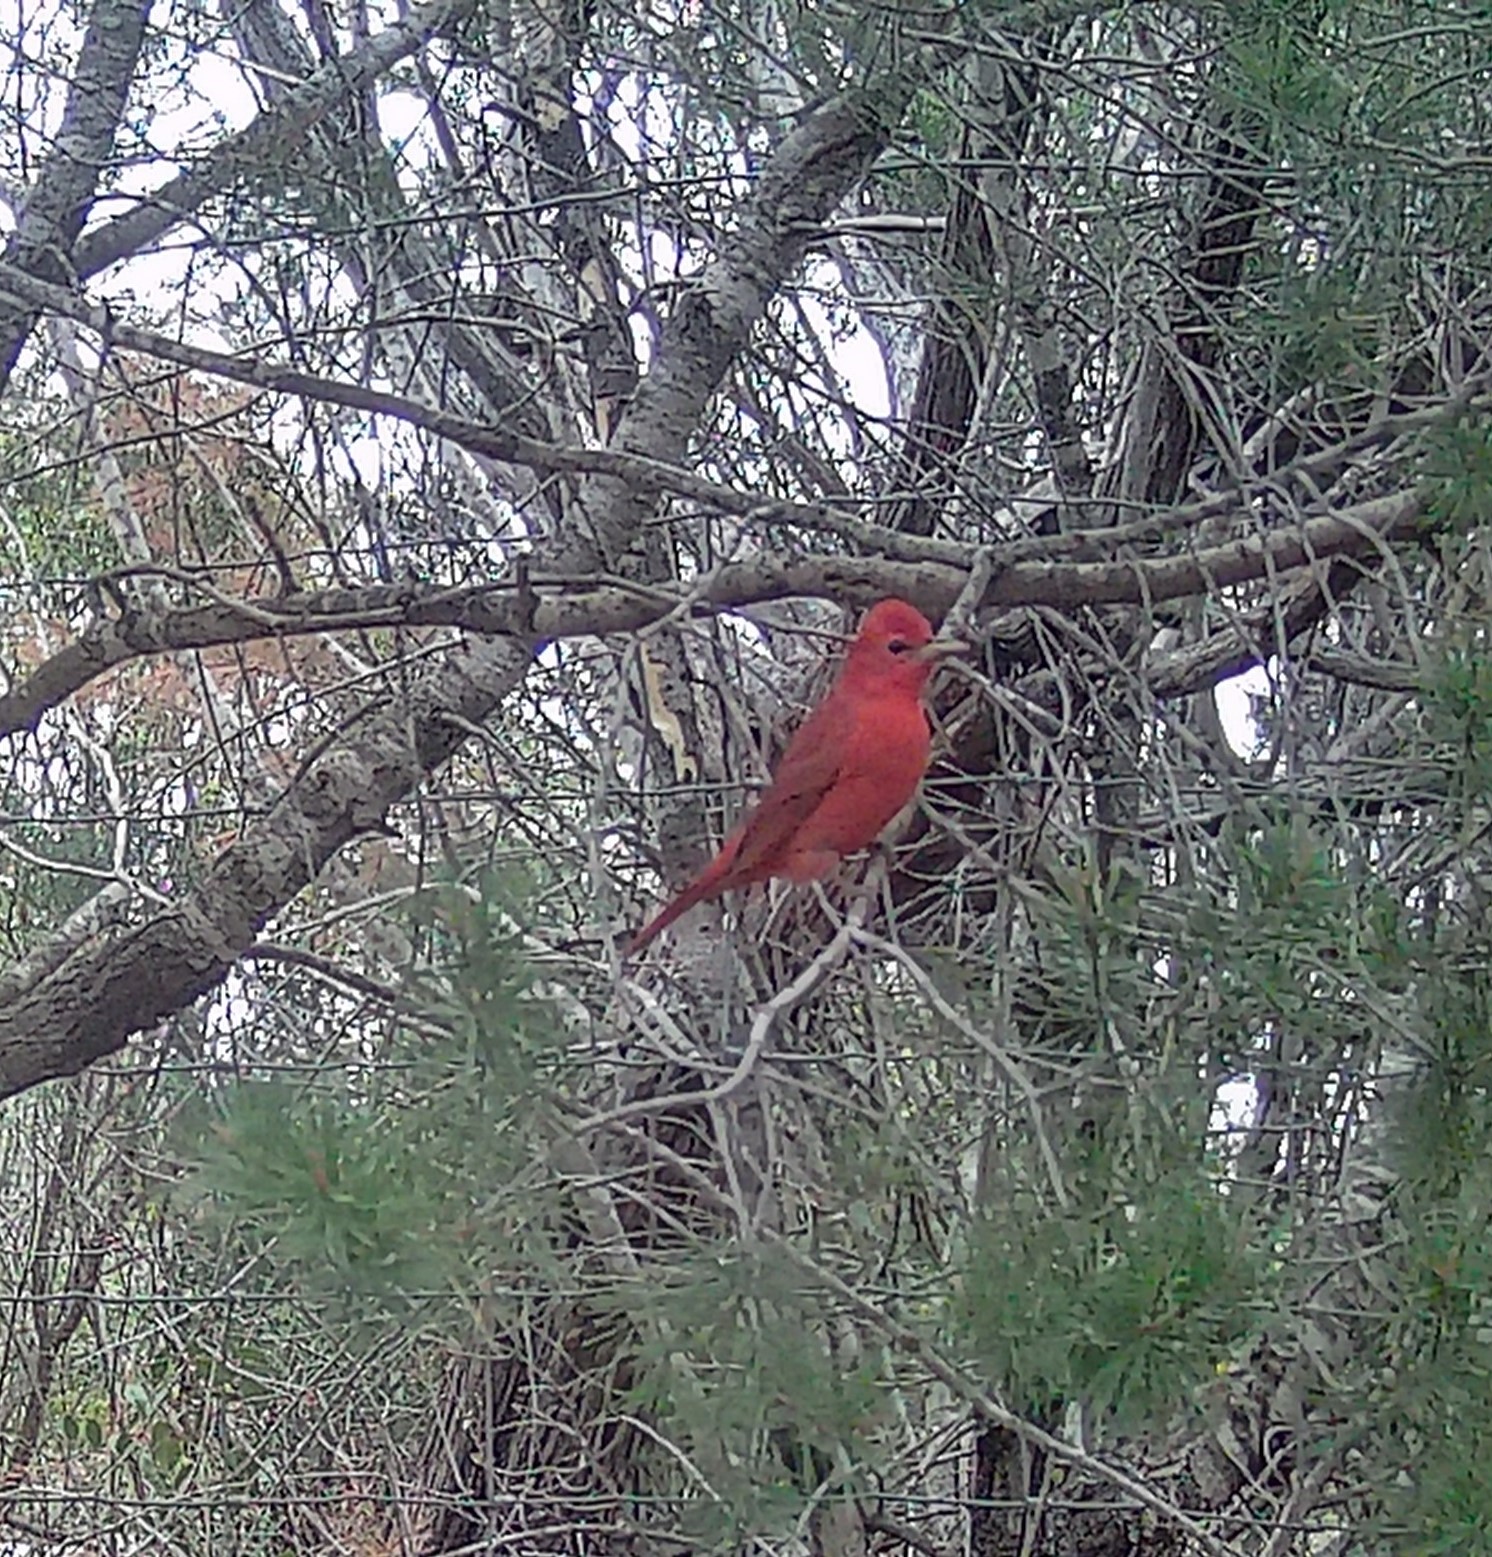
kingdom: Animalia
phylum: Chordata
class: Aves
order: Passeriformes
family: Cardinalidae
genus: Piranga
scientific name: Piranga rubra
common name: Summer tanager
